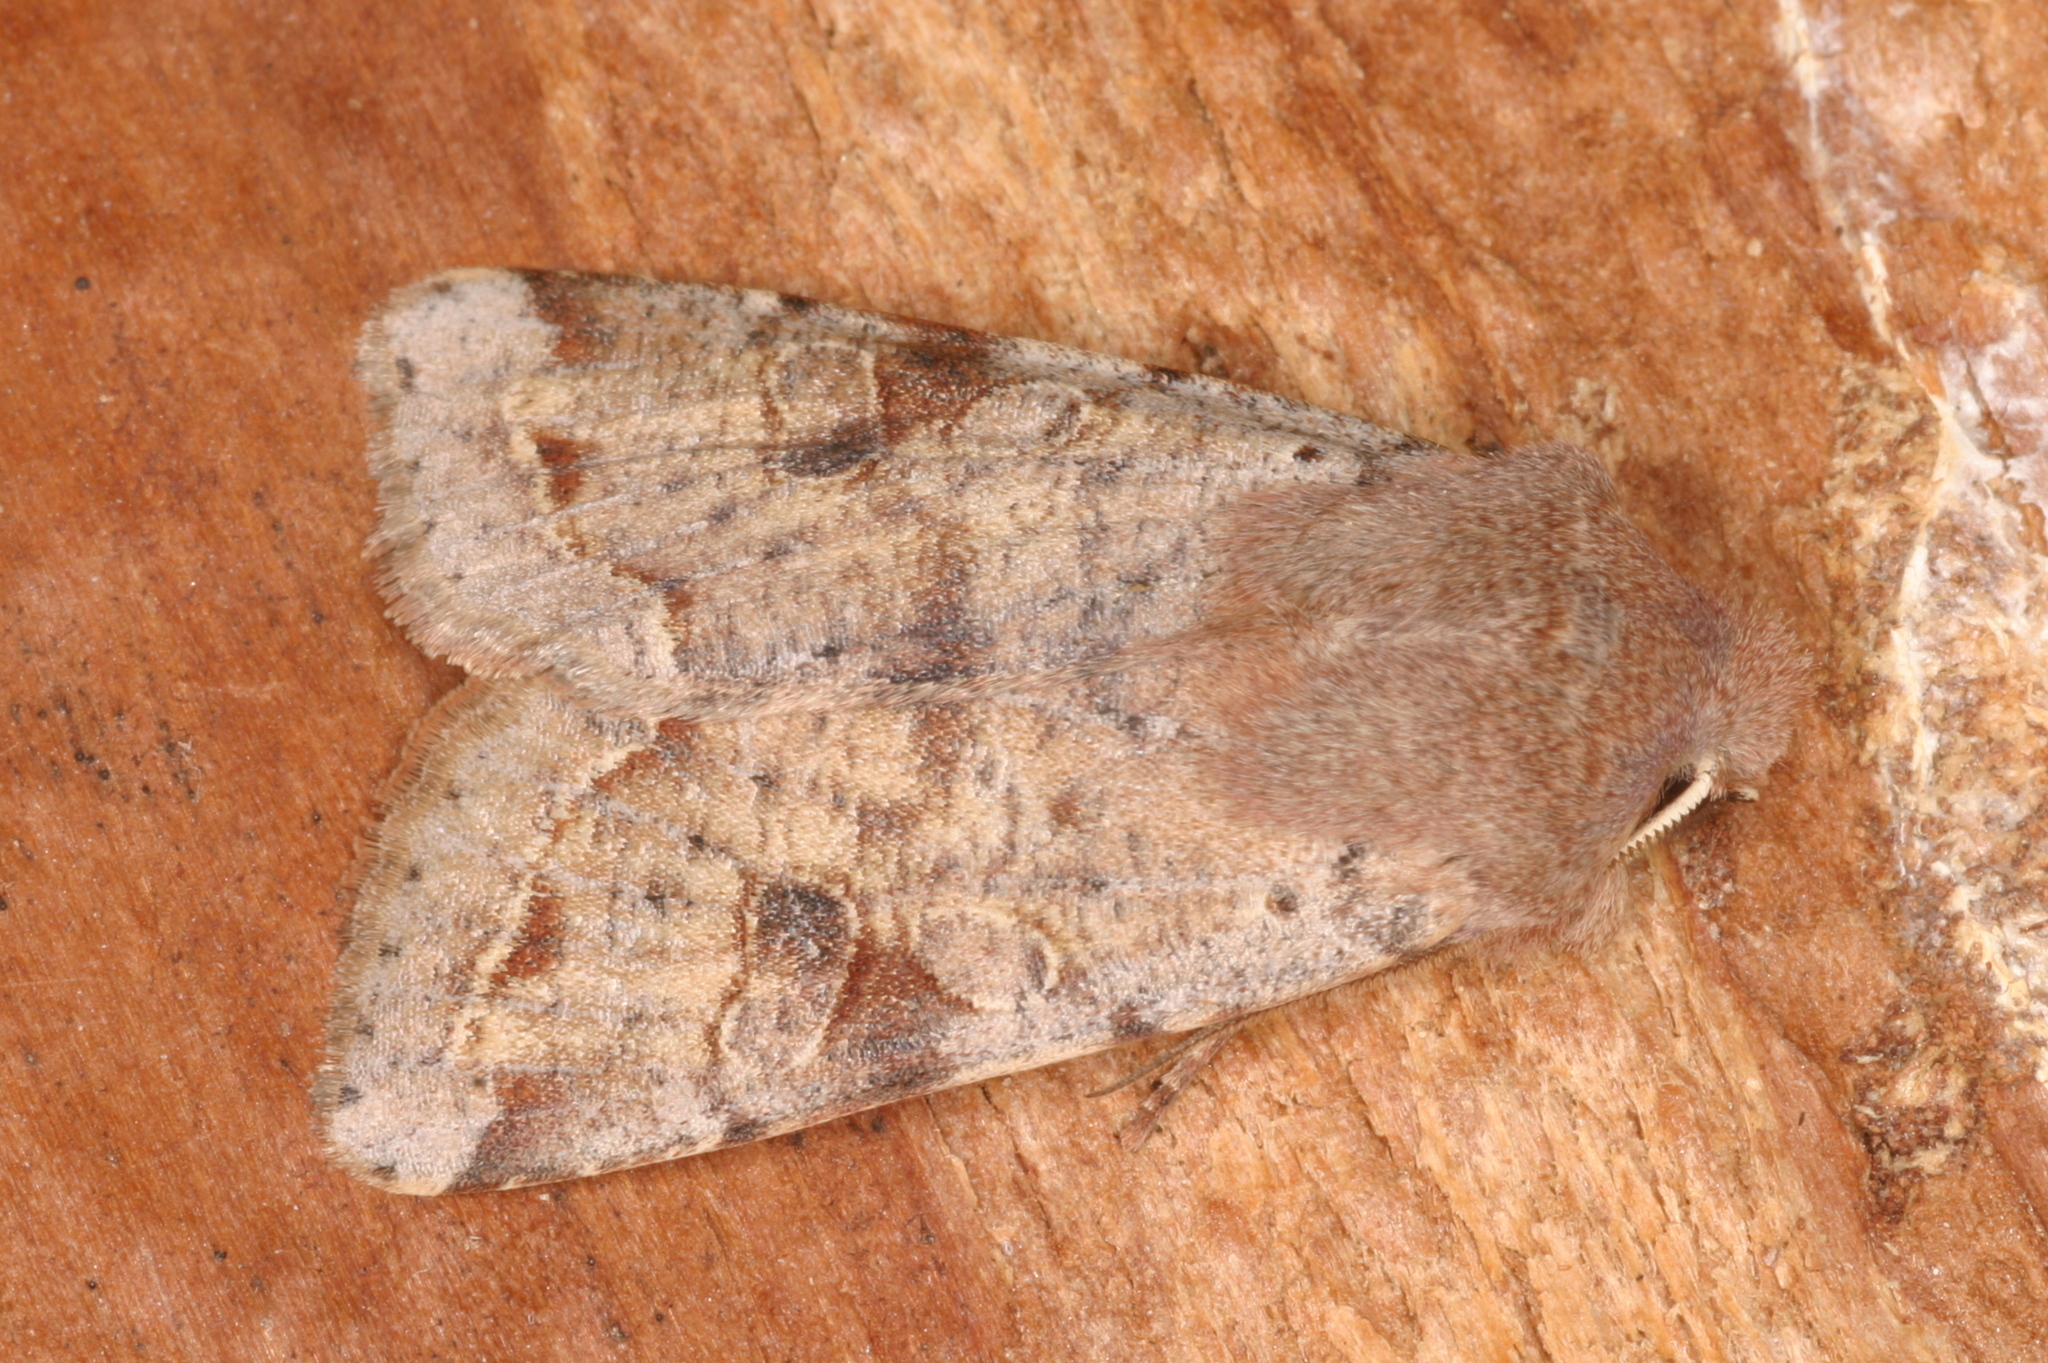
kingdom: Animalia
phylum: Arthropoda
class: Insecta
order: Lepidoptera
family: Noctuidae
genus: Orthosia
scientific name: Orthosia incerta
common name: Clouded drab
